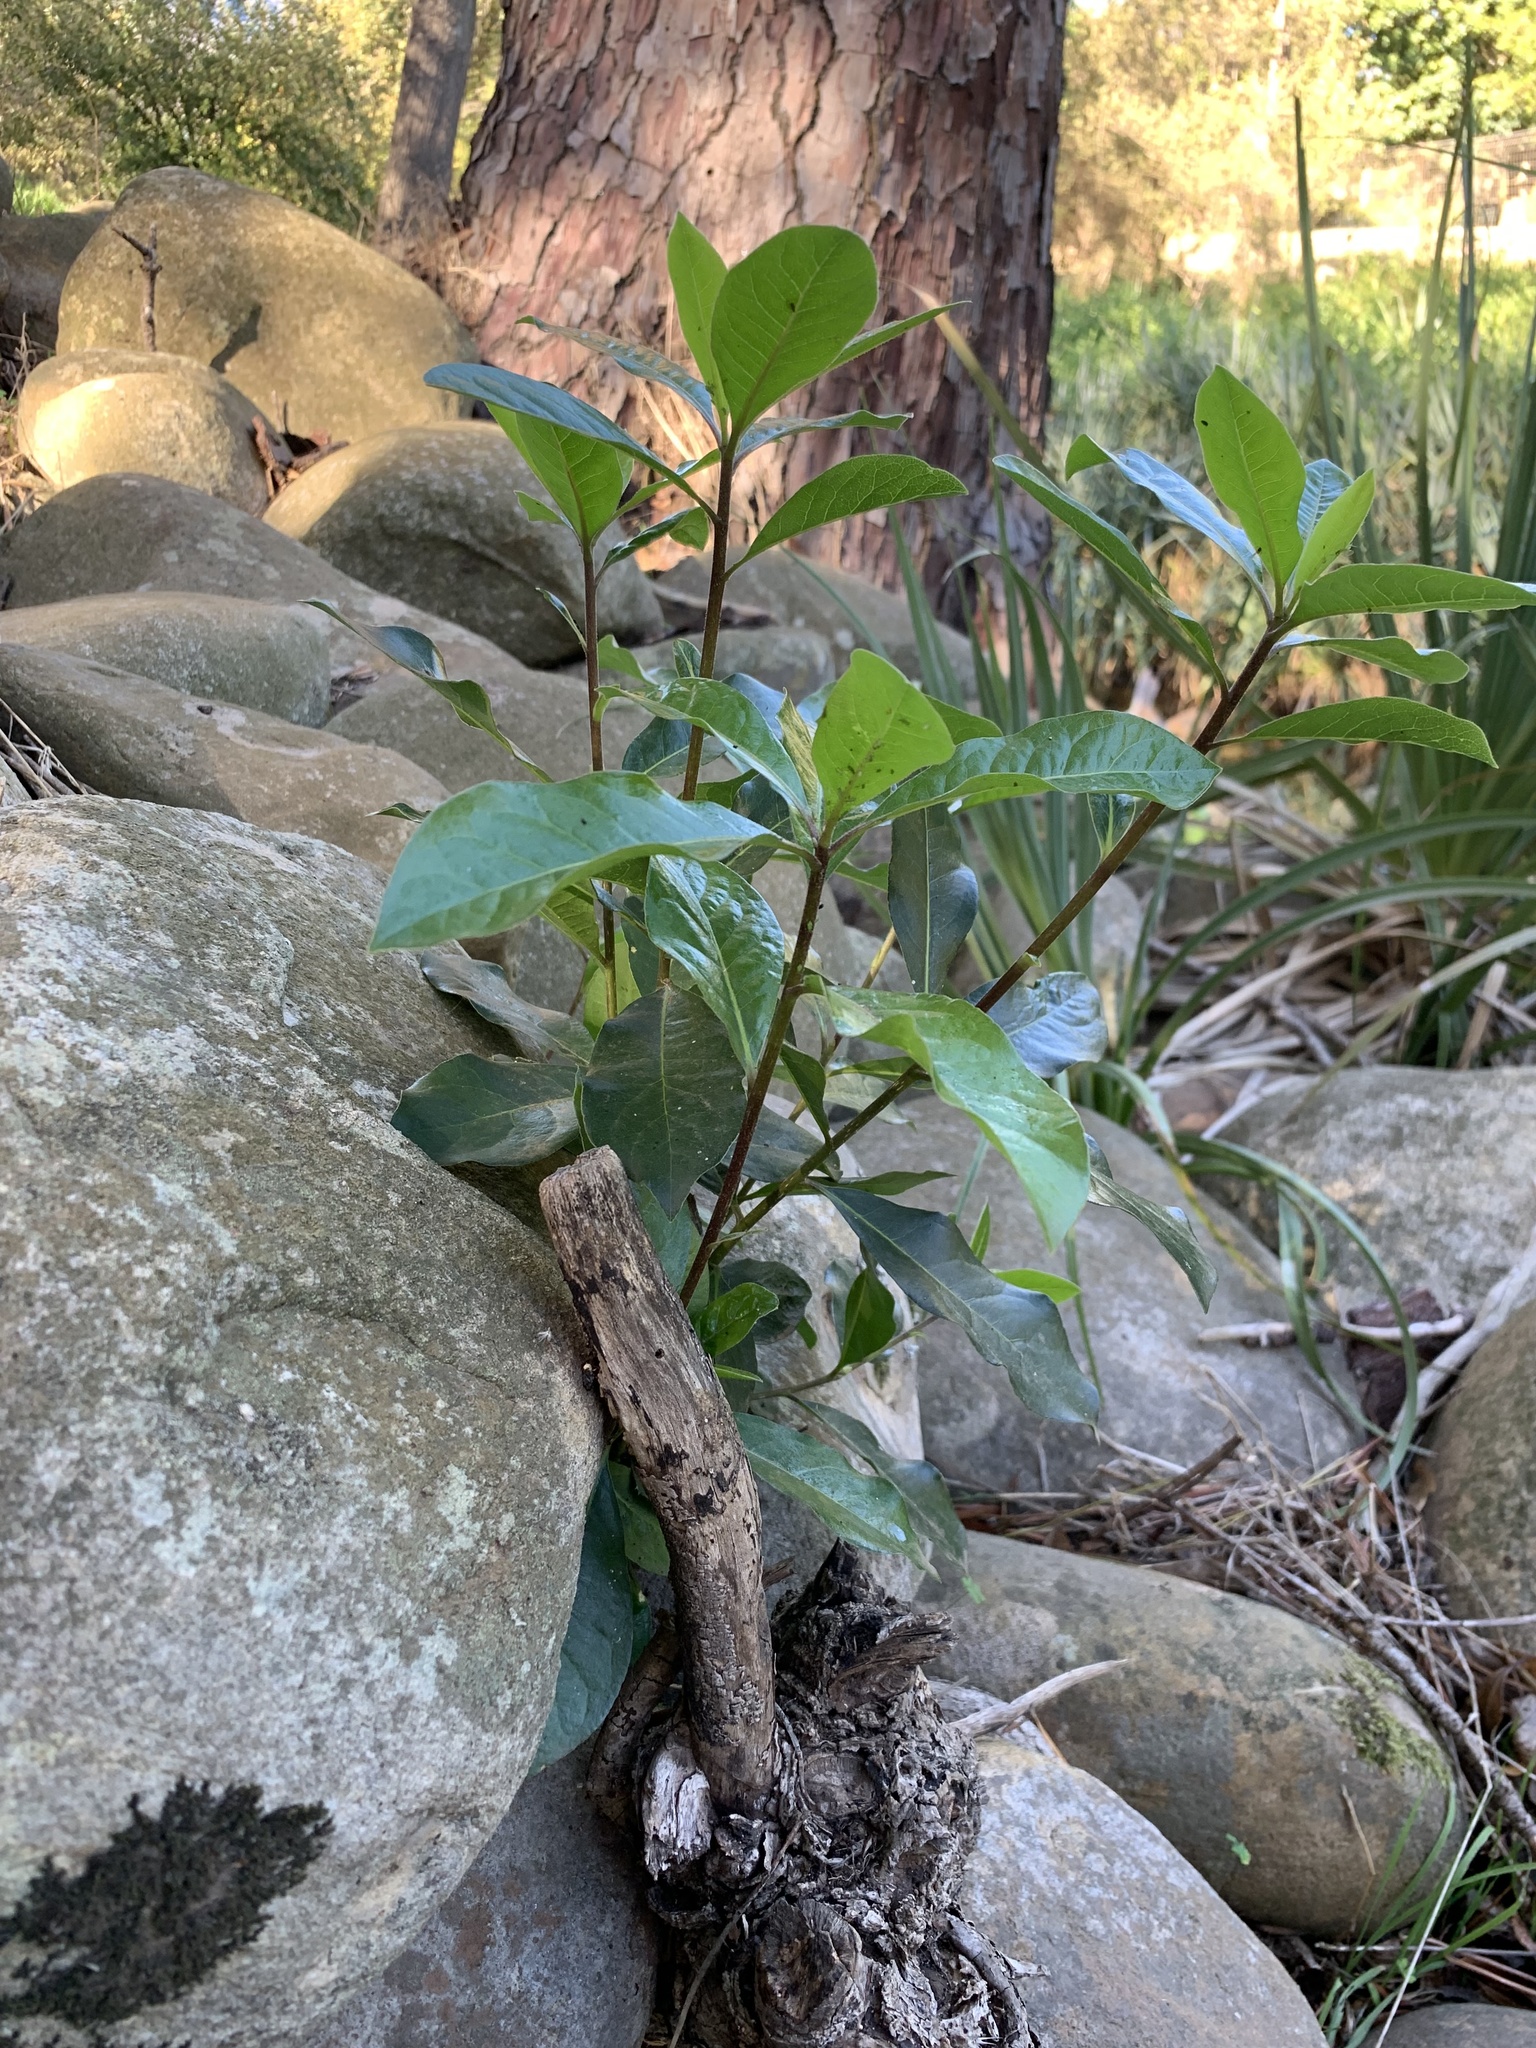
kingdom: Plantae
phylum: Tracheophyta
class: Magnoliopsida
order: Apiales
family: Pittosporaceae
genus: Pittosporum
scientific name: Pittosporum undulatum
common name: Australian cheesewood
